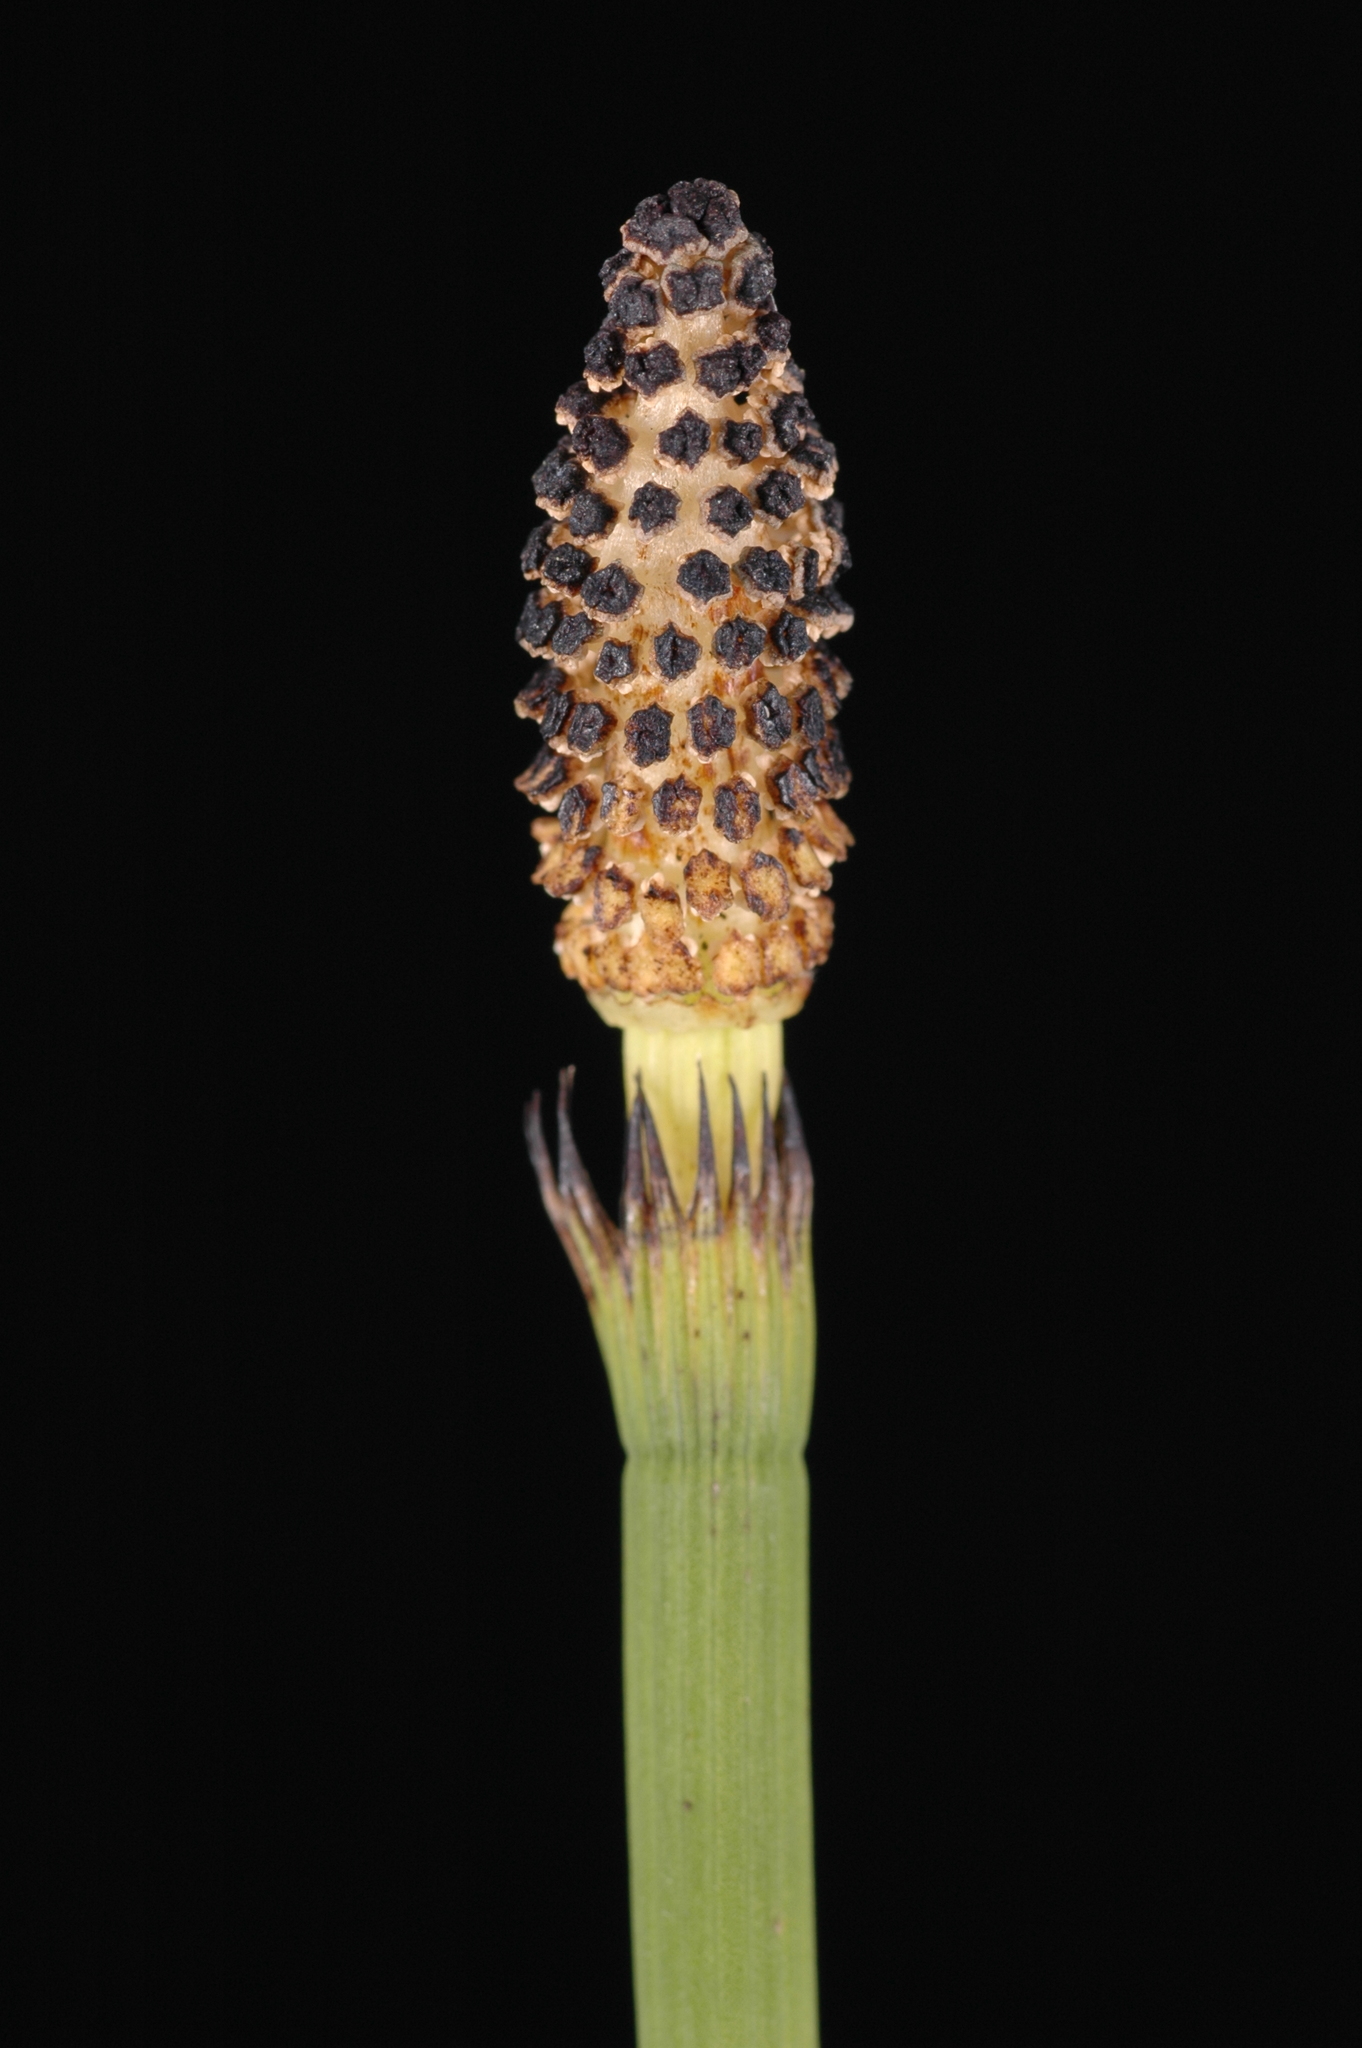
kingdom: Plantae
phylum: Tracheophyta
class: Polypodiopsida
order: Equisetales
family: Equisetaceae
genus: Equisetum
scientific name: Equisetum fluviatile
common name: Water horsetail
